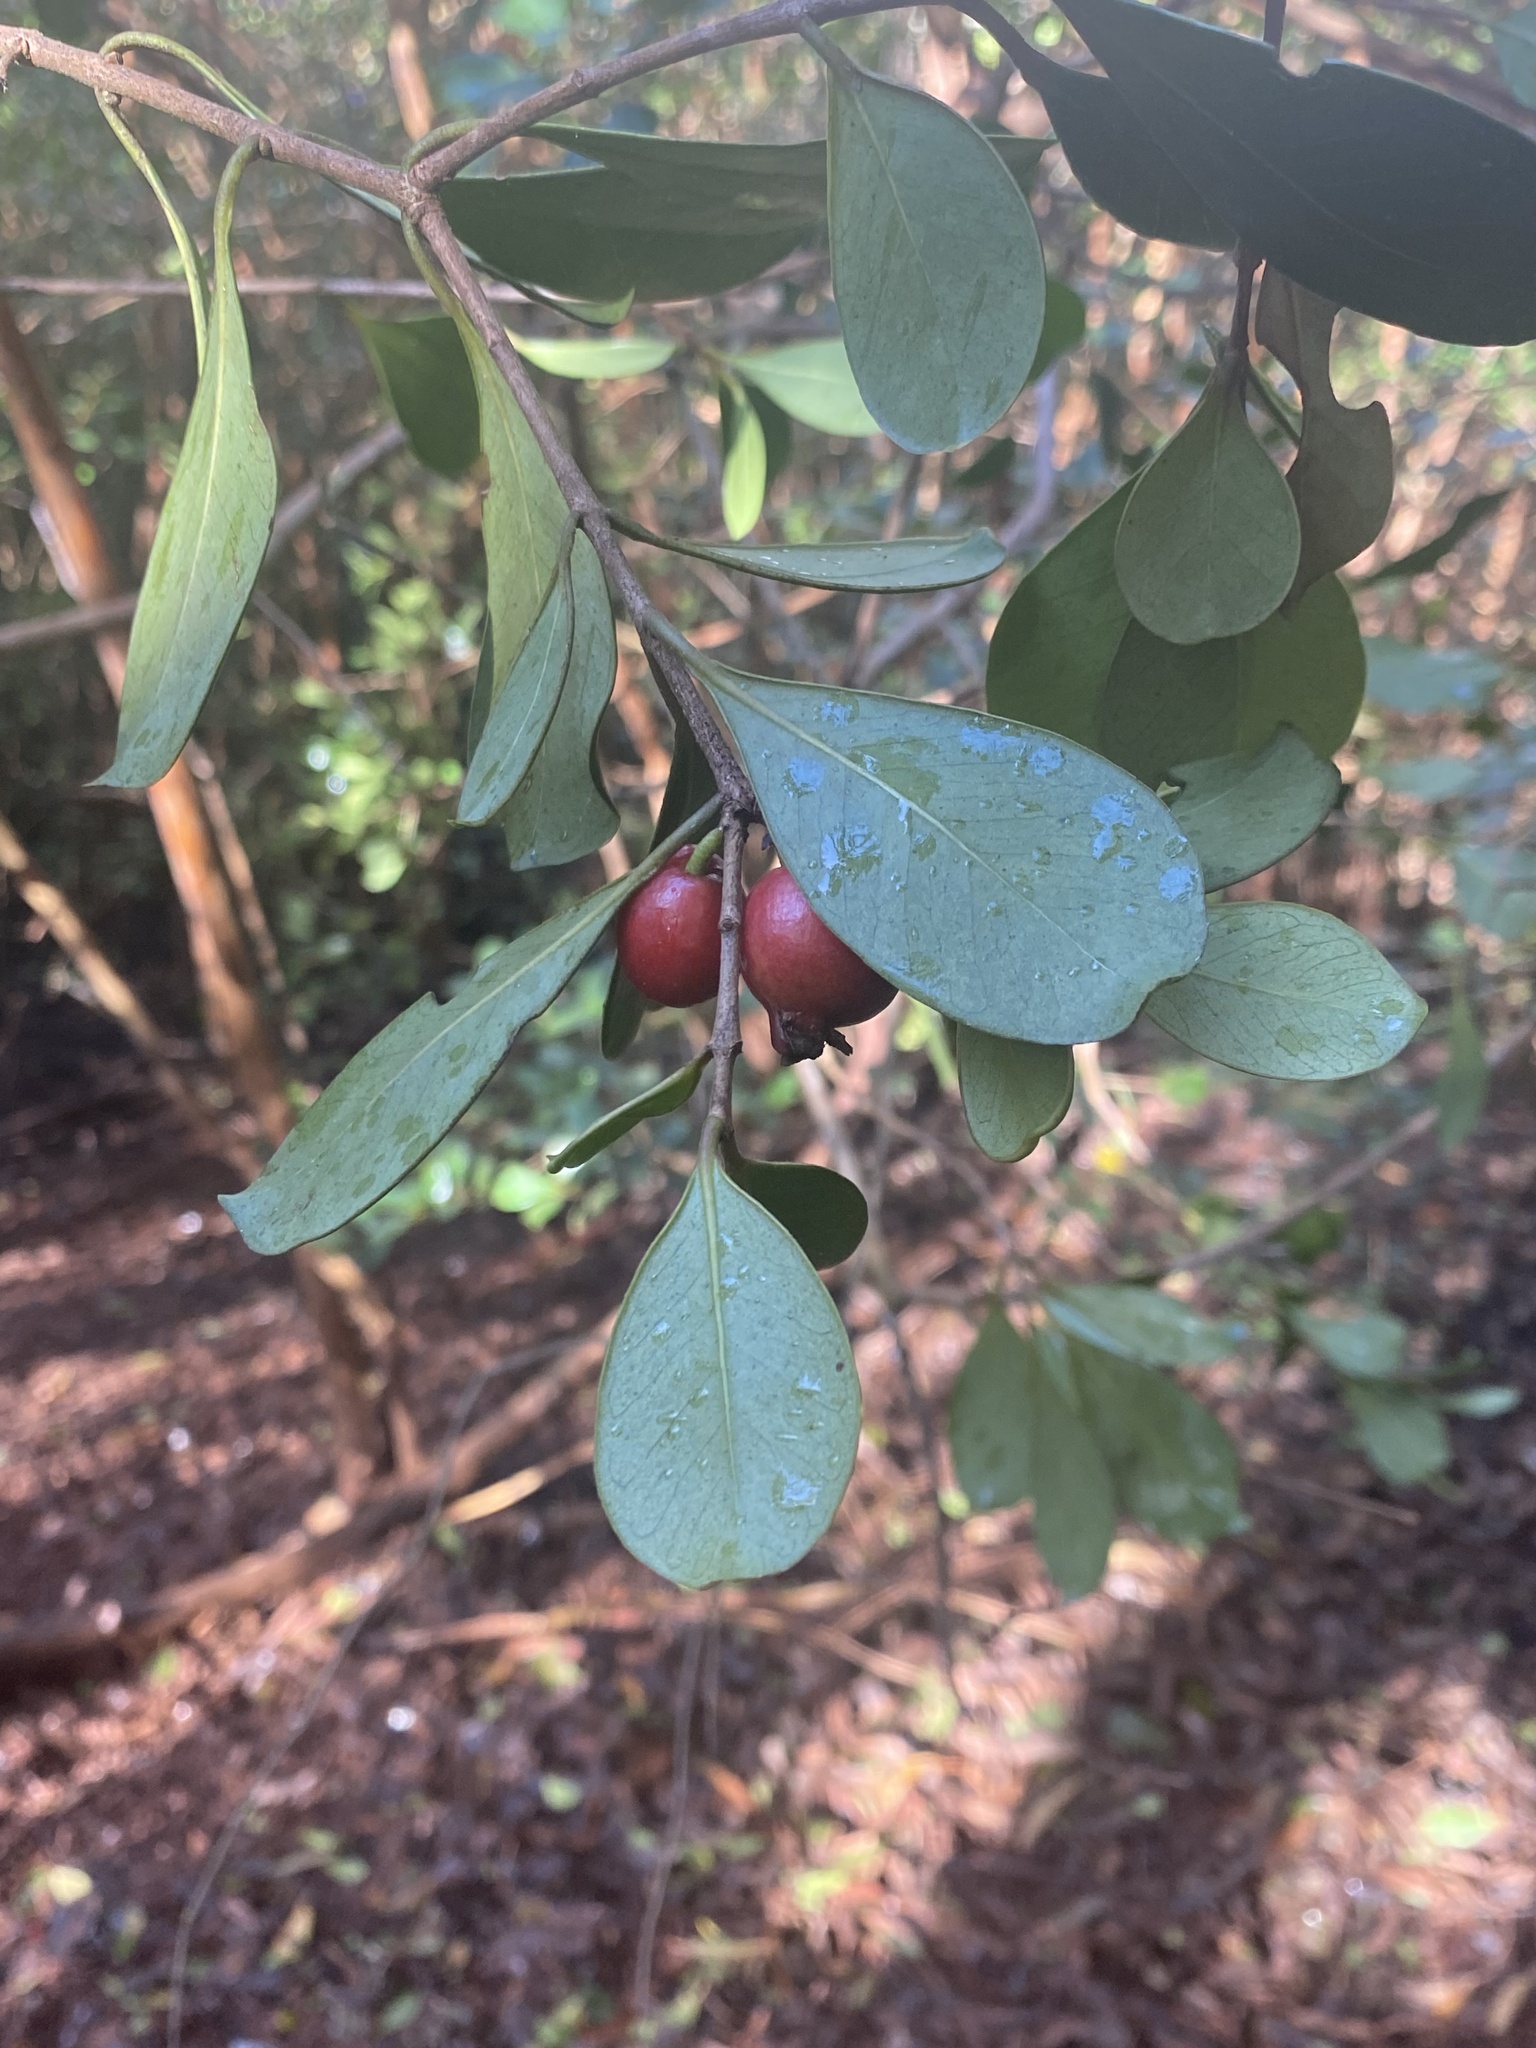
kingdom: Plantae
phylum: Tracheophyta
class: Magnoliopsida
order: Myrtales
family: Myrtaceae
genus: Psidium
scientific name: Psidium cattleianum
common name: Strawberry guava
